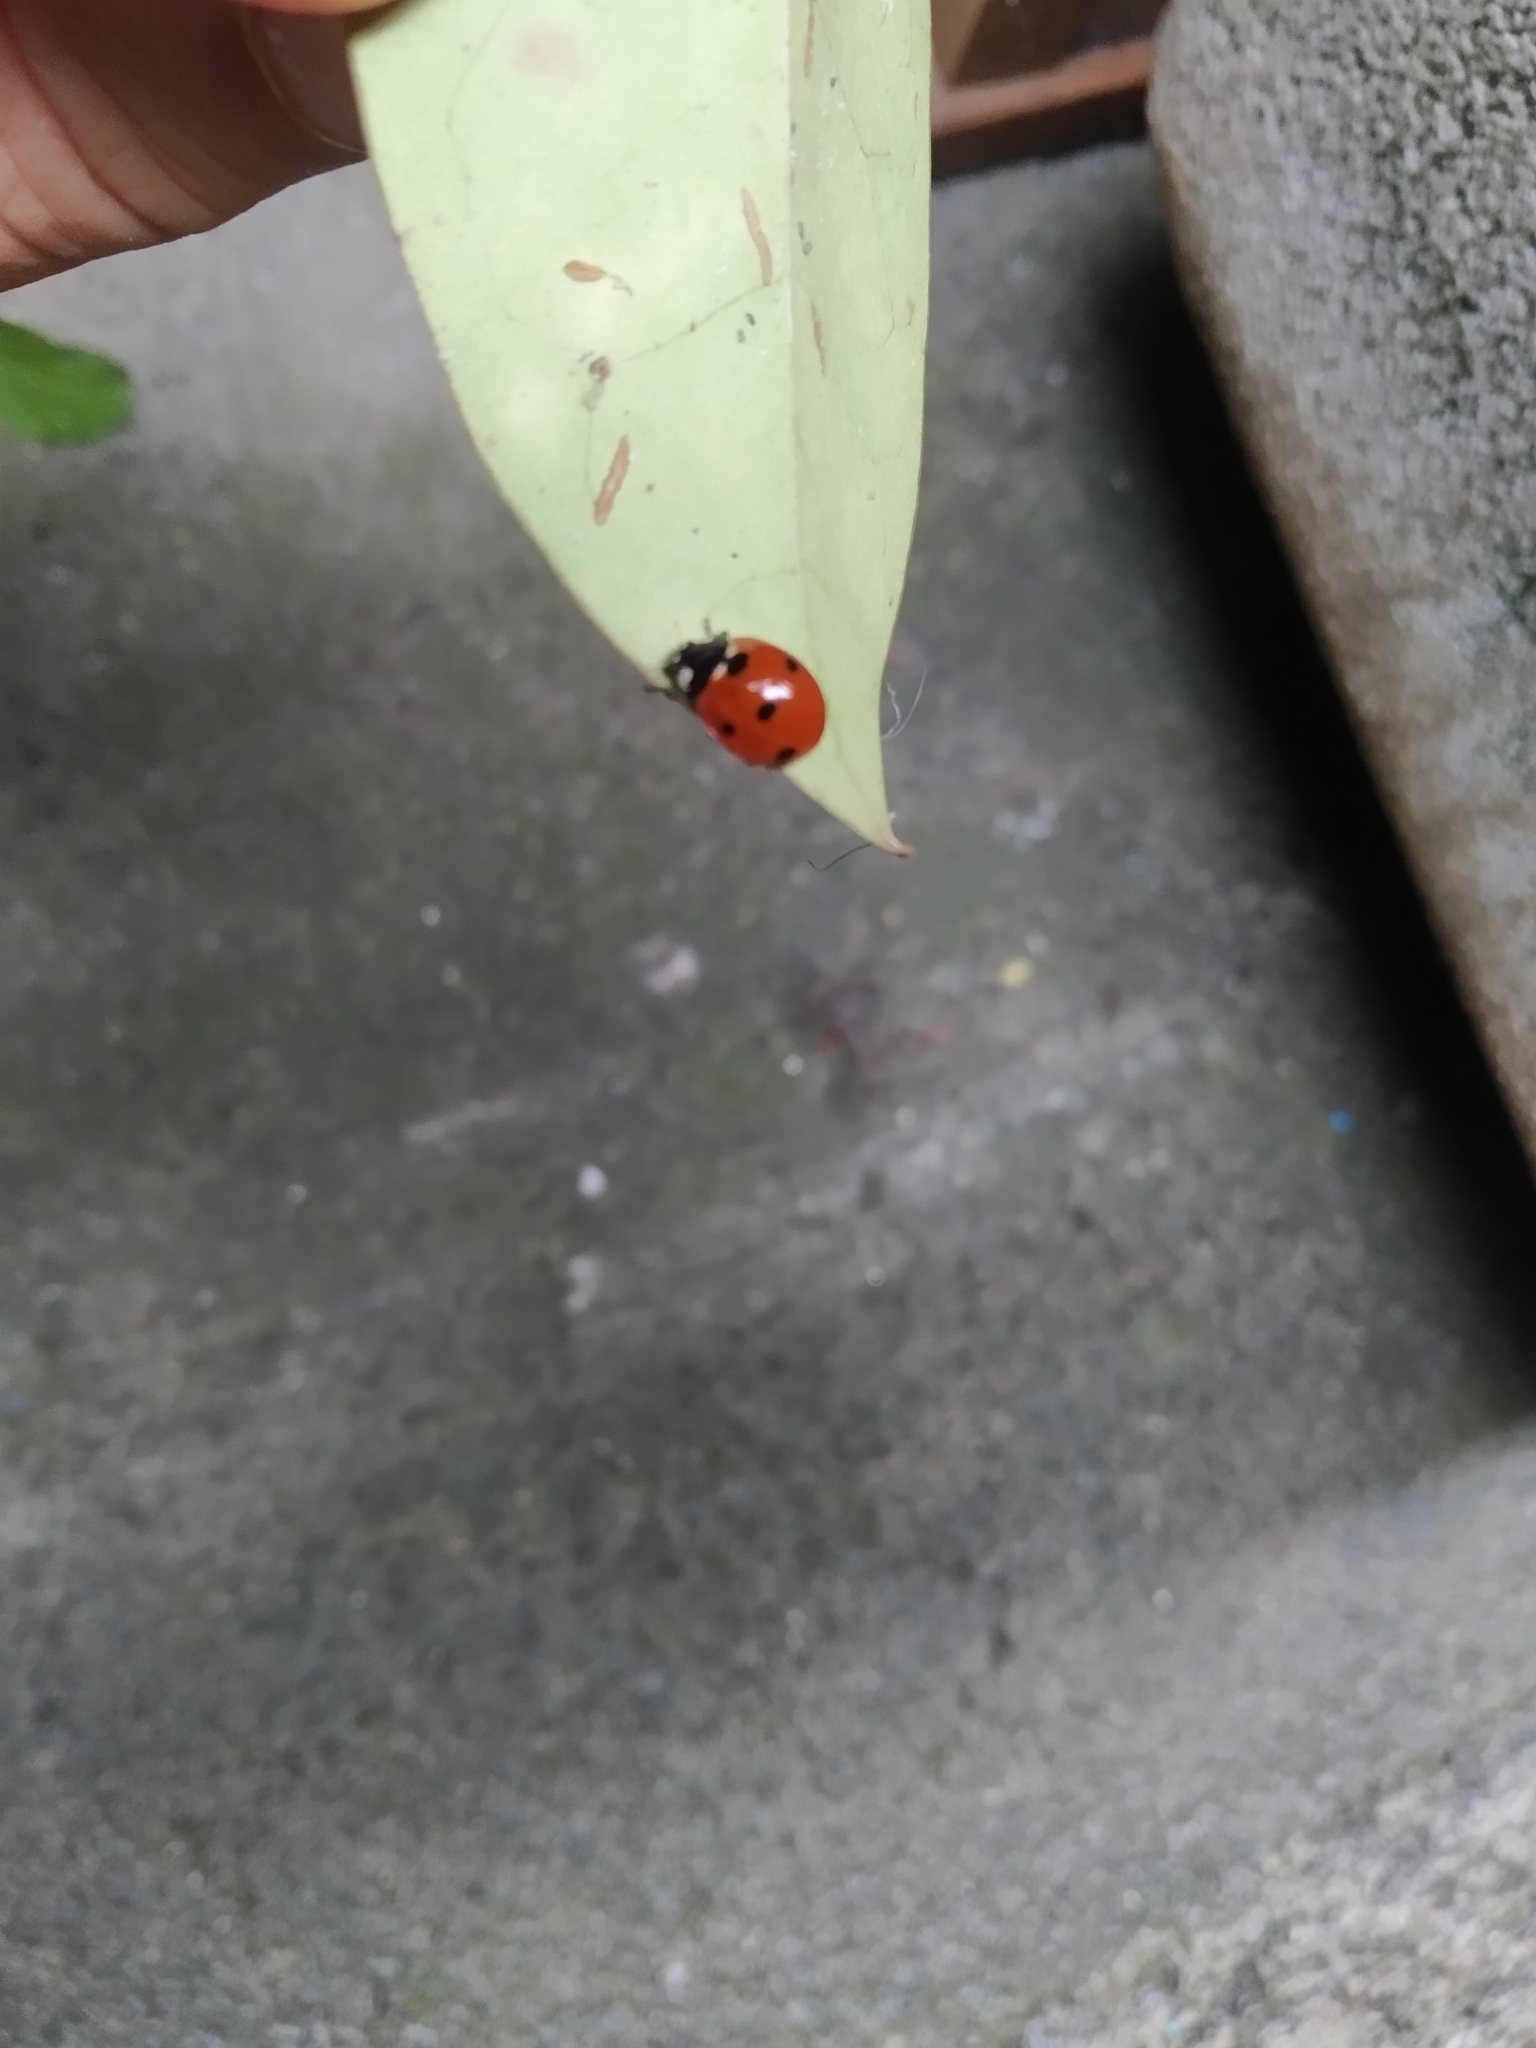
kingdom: Animalia
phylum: Arthropoda
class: Insecta
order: Coleoptera
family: Coccinellidae
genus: Coccinella
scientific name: Coccinella septempunctata
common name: Sevenspotted lady beetle
